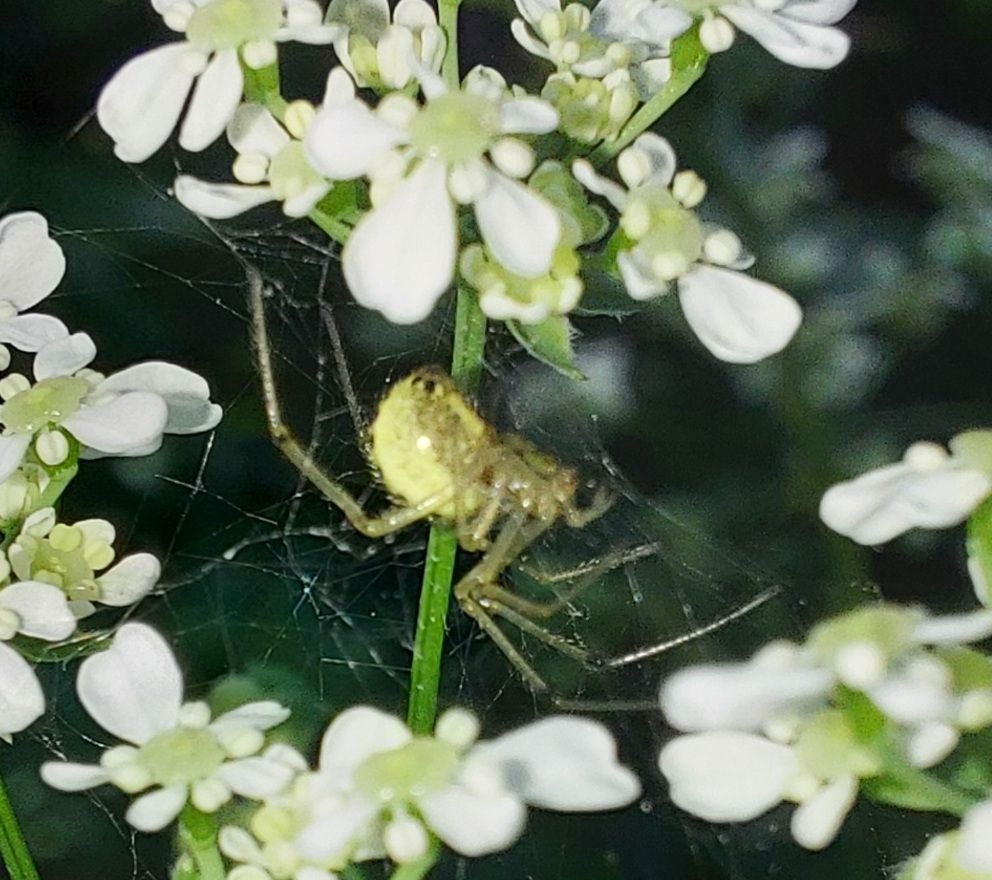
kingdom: Animalia
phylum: Arthropoda
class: Arachnida
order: Araneae
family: Theridiidae
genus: Enoplognatha
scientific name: Enoplognatha ovata
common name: Common candy-striped spider
